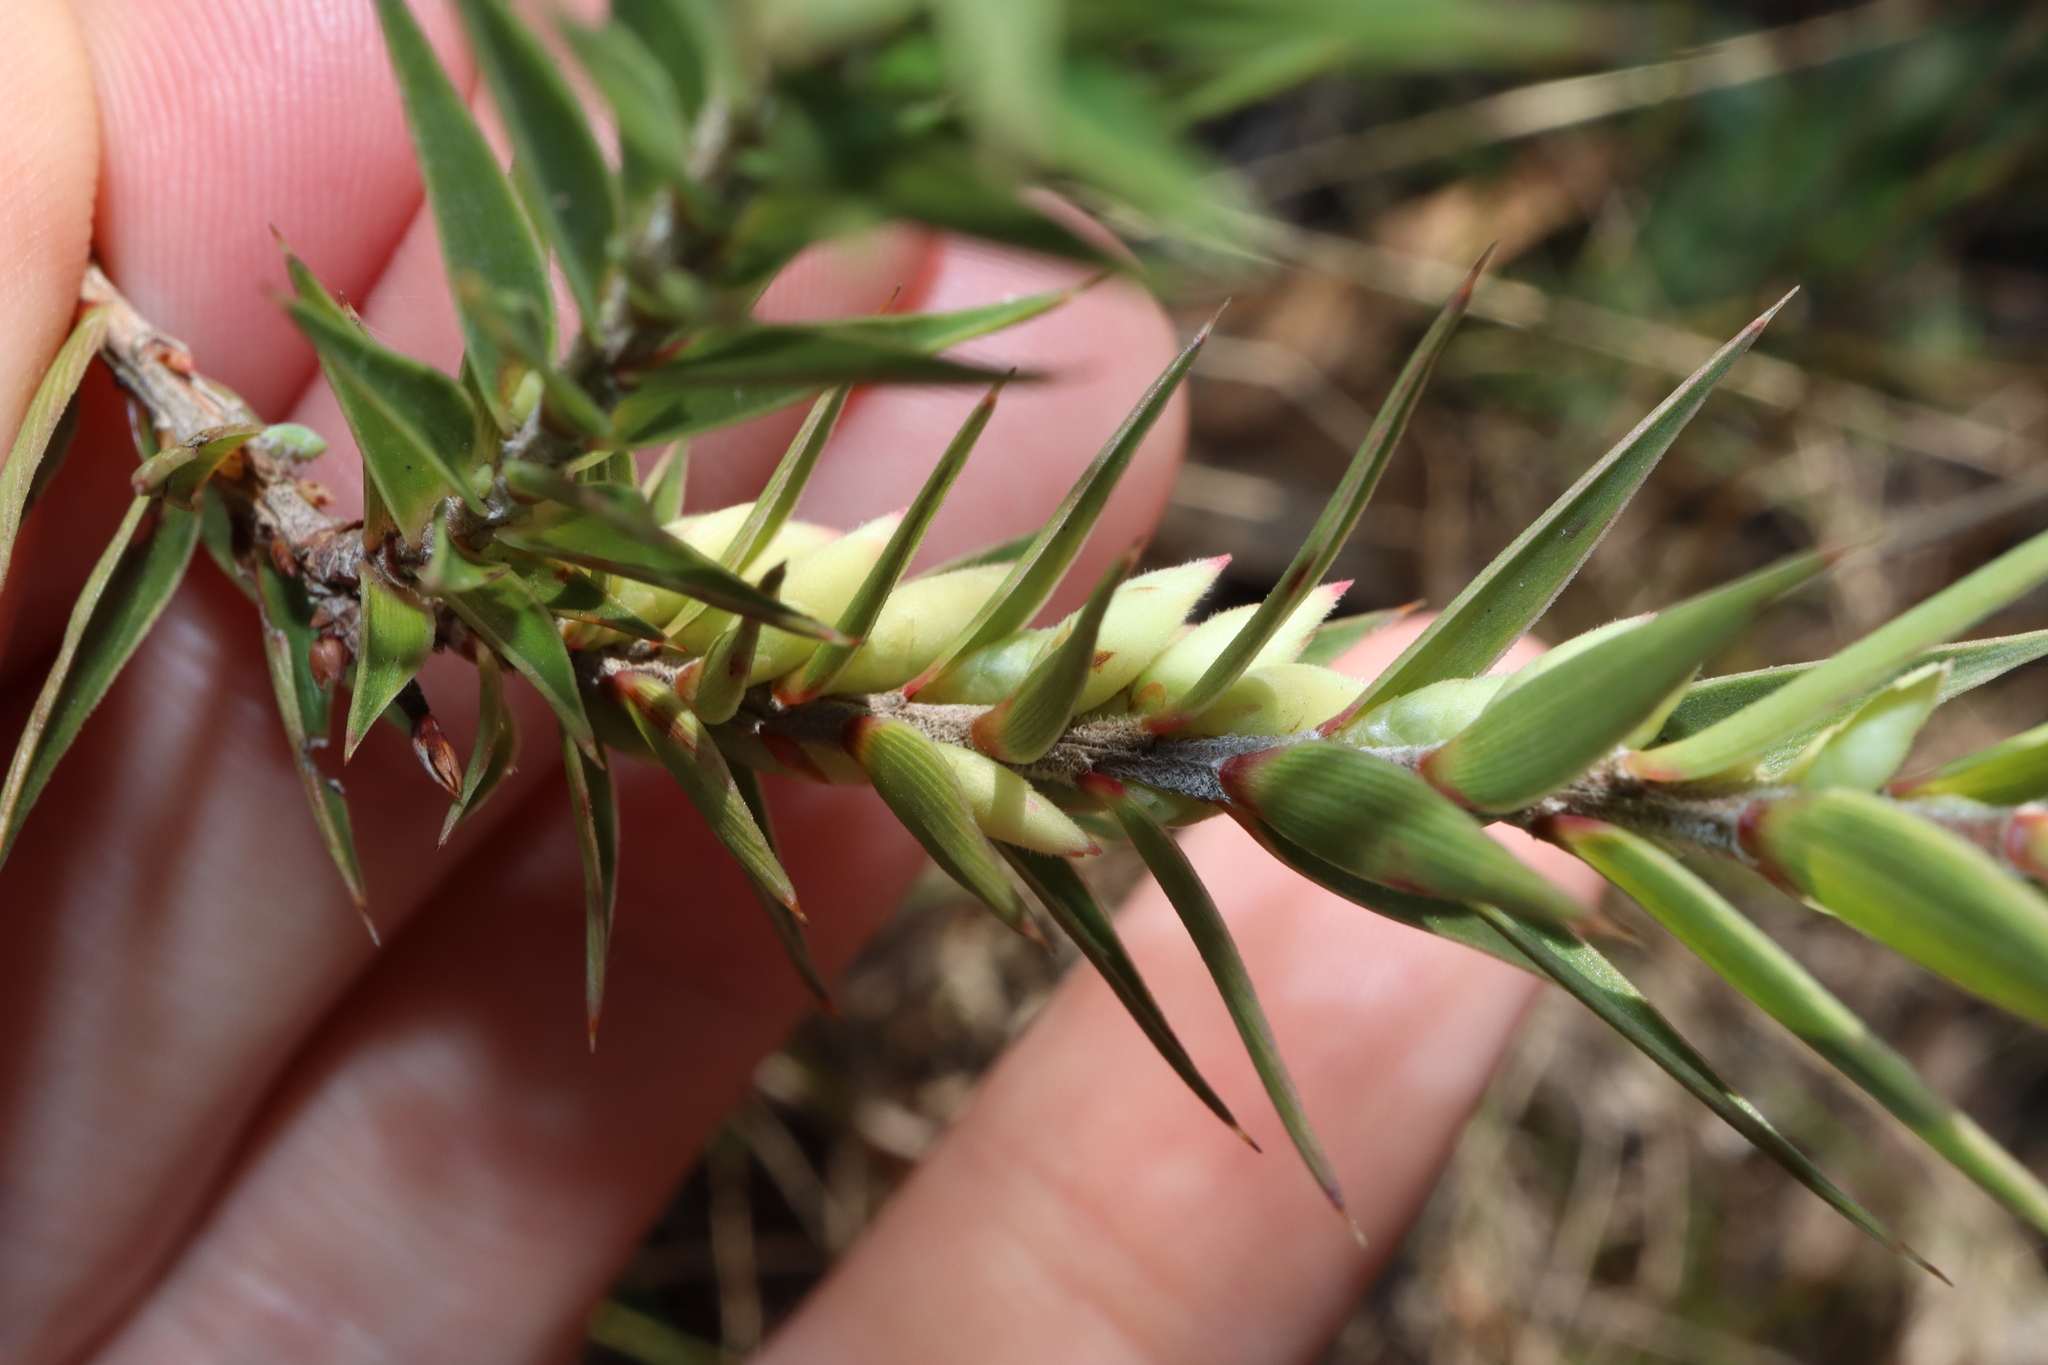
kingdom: Plantae
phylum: Tracheophyta
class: Magnoliopsida
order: Ericales
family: Ericaceae
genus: Melichrus
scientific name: Melichrus urceolatus
